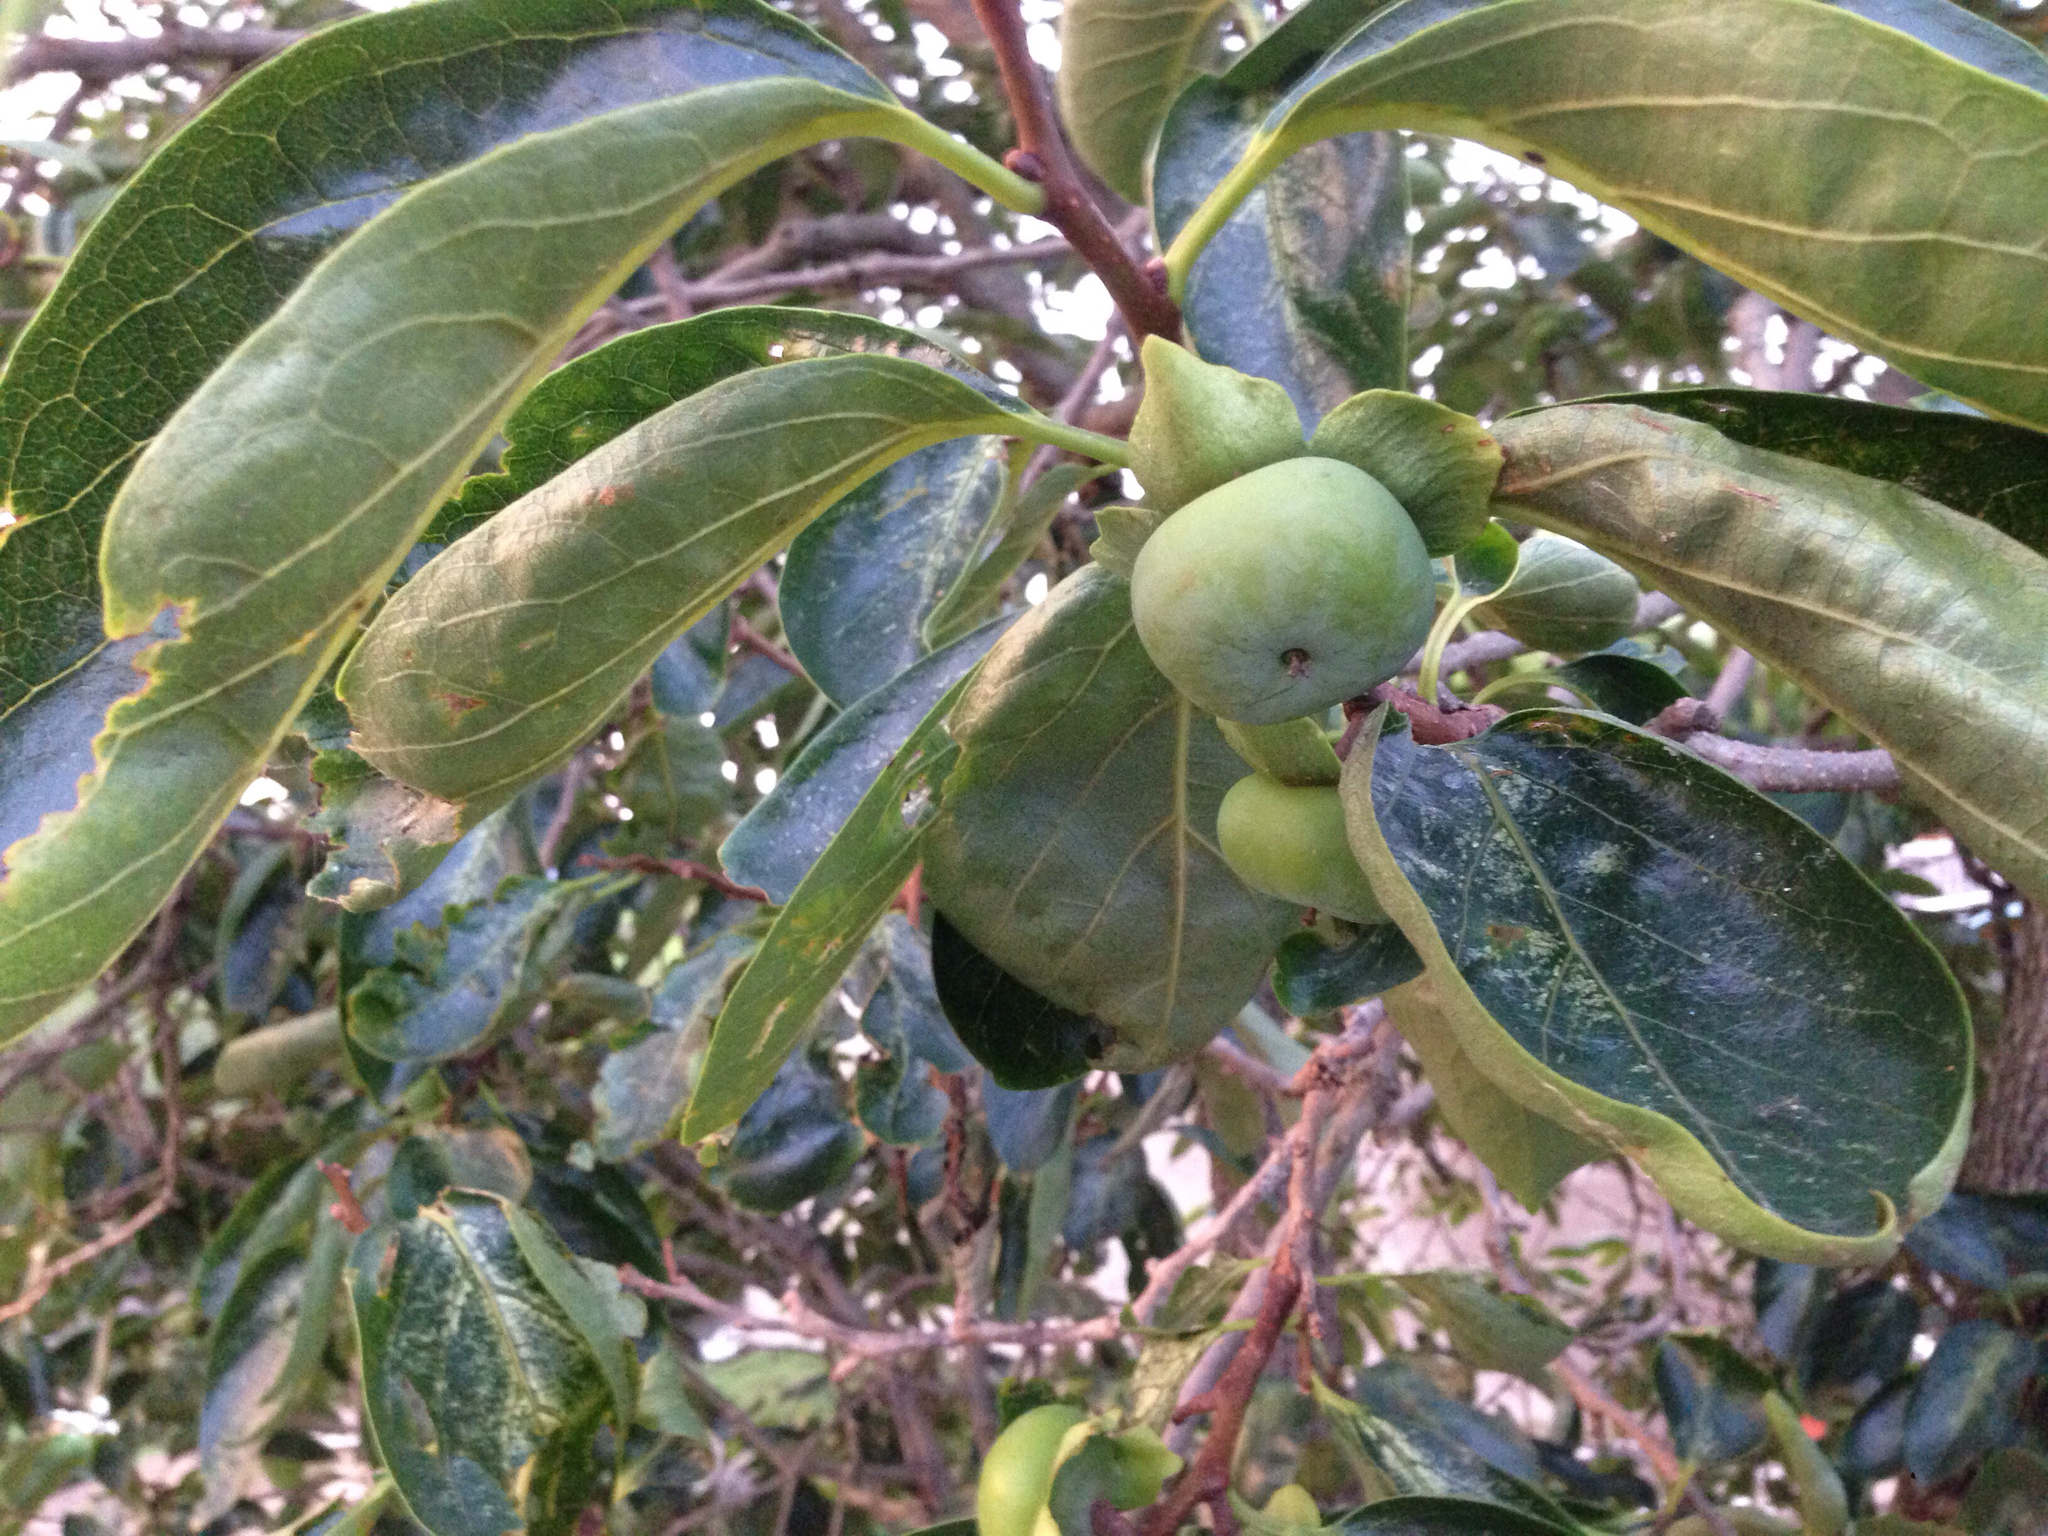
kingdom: Plantae
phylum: Tracheophyta
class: Magnoliopsida
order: Ericales
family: Ebenaceae
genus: Diospyros
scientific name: Diospyros kaki
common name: Persimmon
